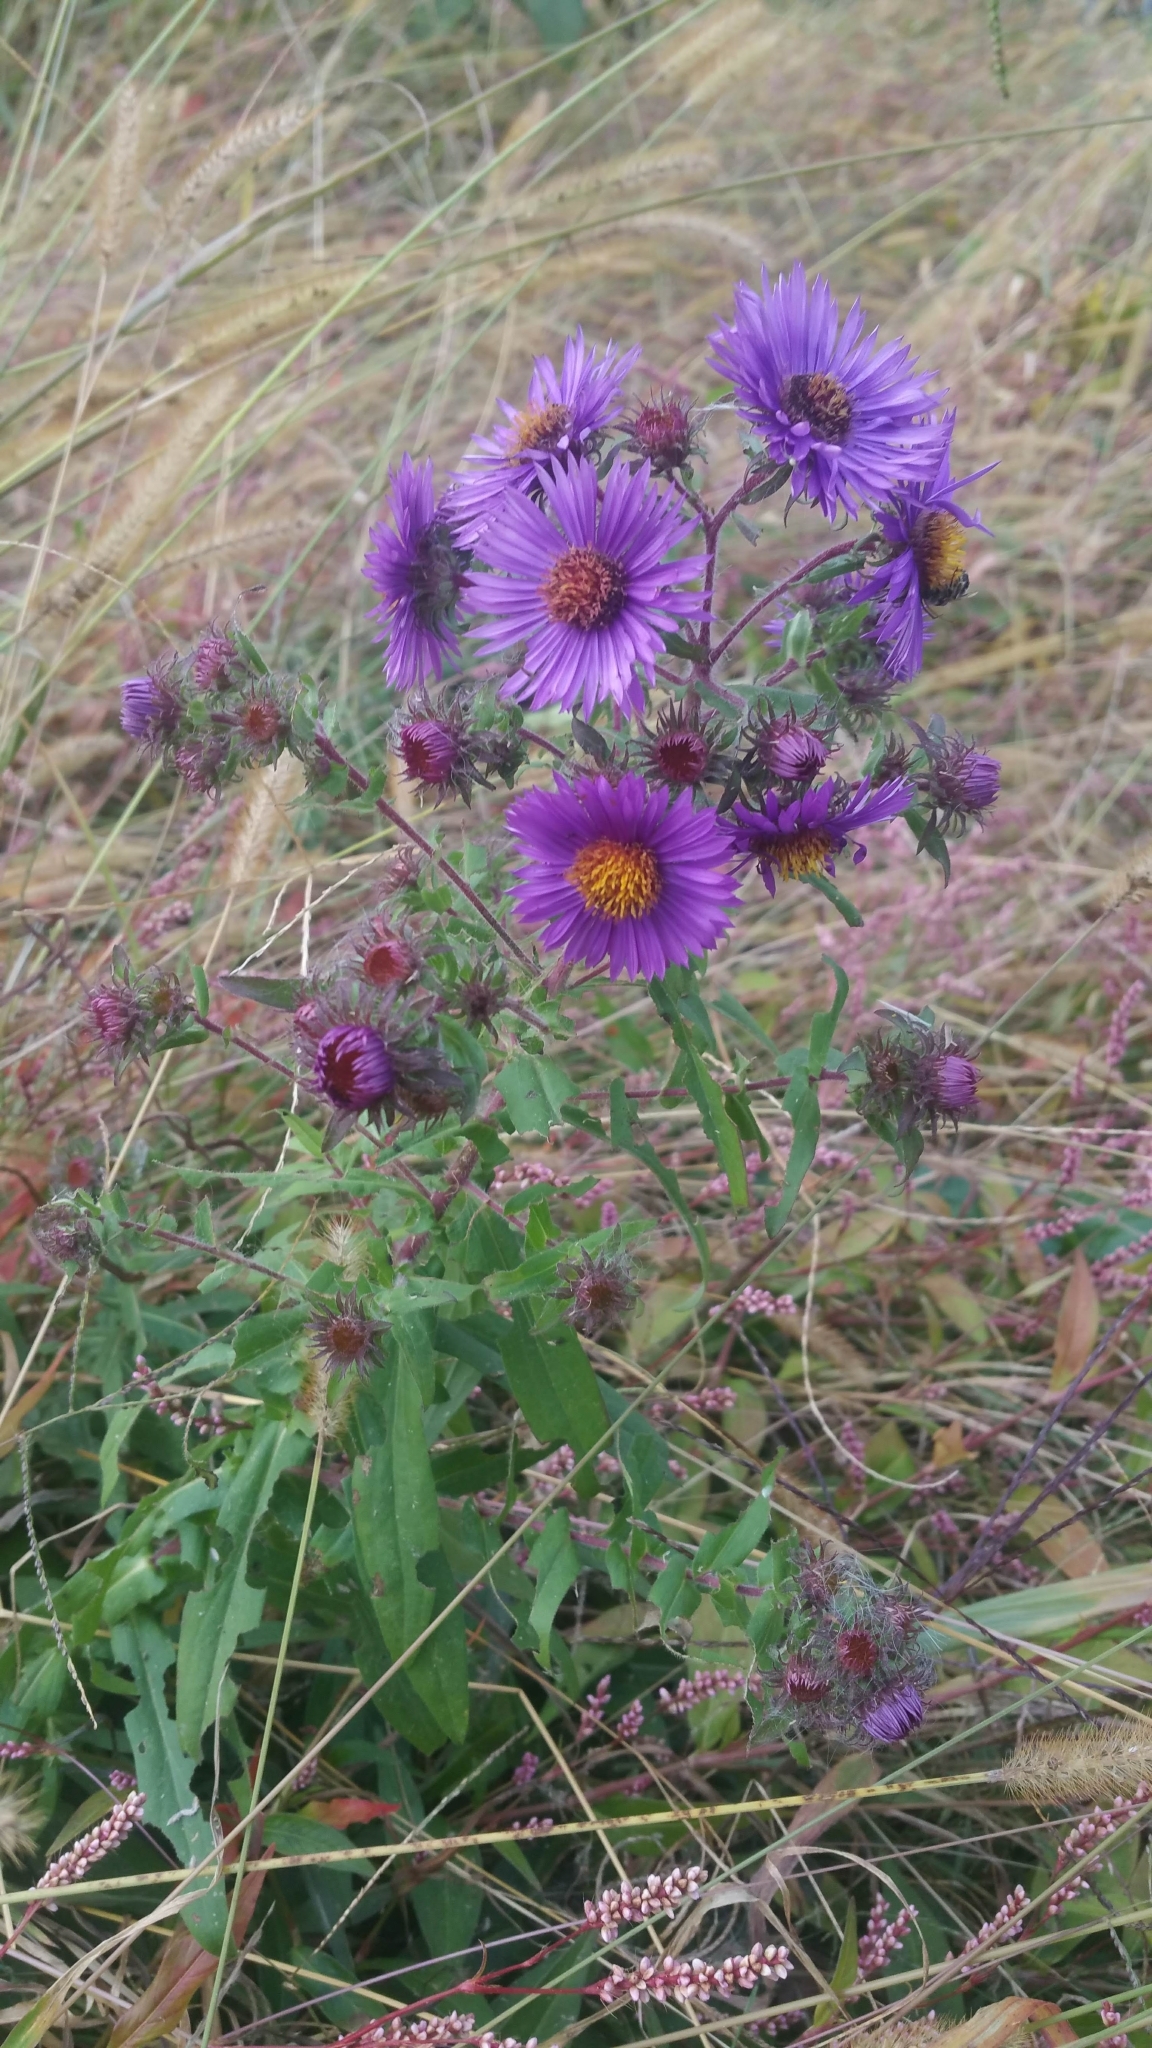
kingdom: Plantae
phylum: Tracheophyta
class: Magnoliopsida
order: Asterales
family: Asteraceae
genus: Symphyotrichum
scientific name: Symphyotrichum novae-angliae
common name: Michaelmas daisy
